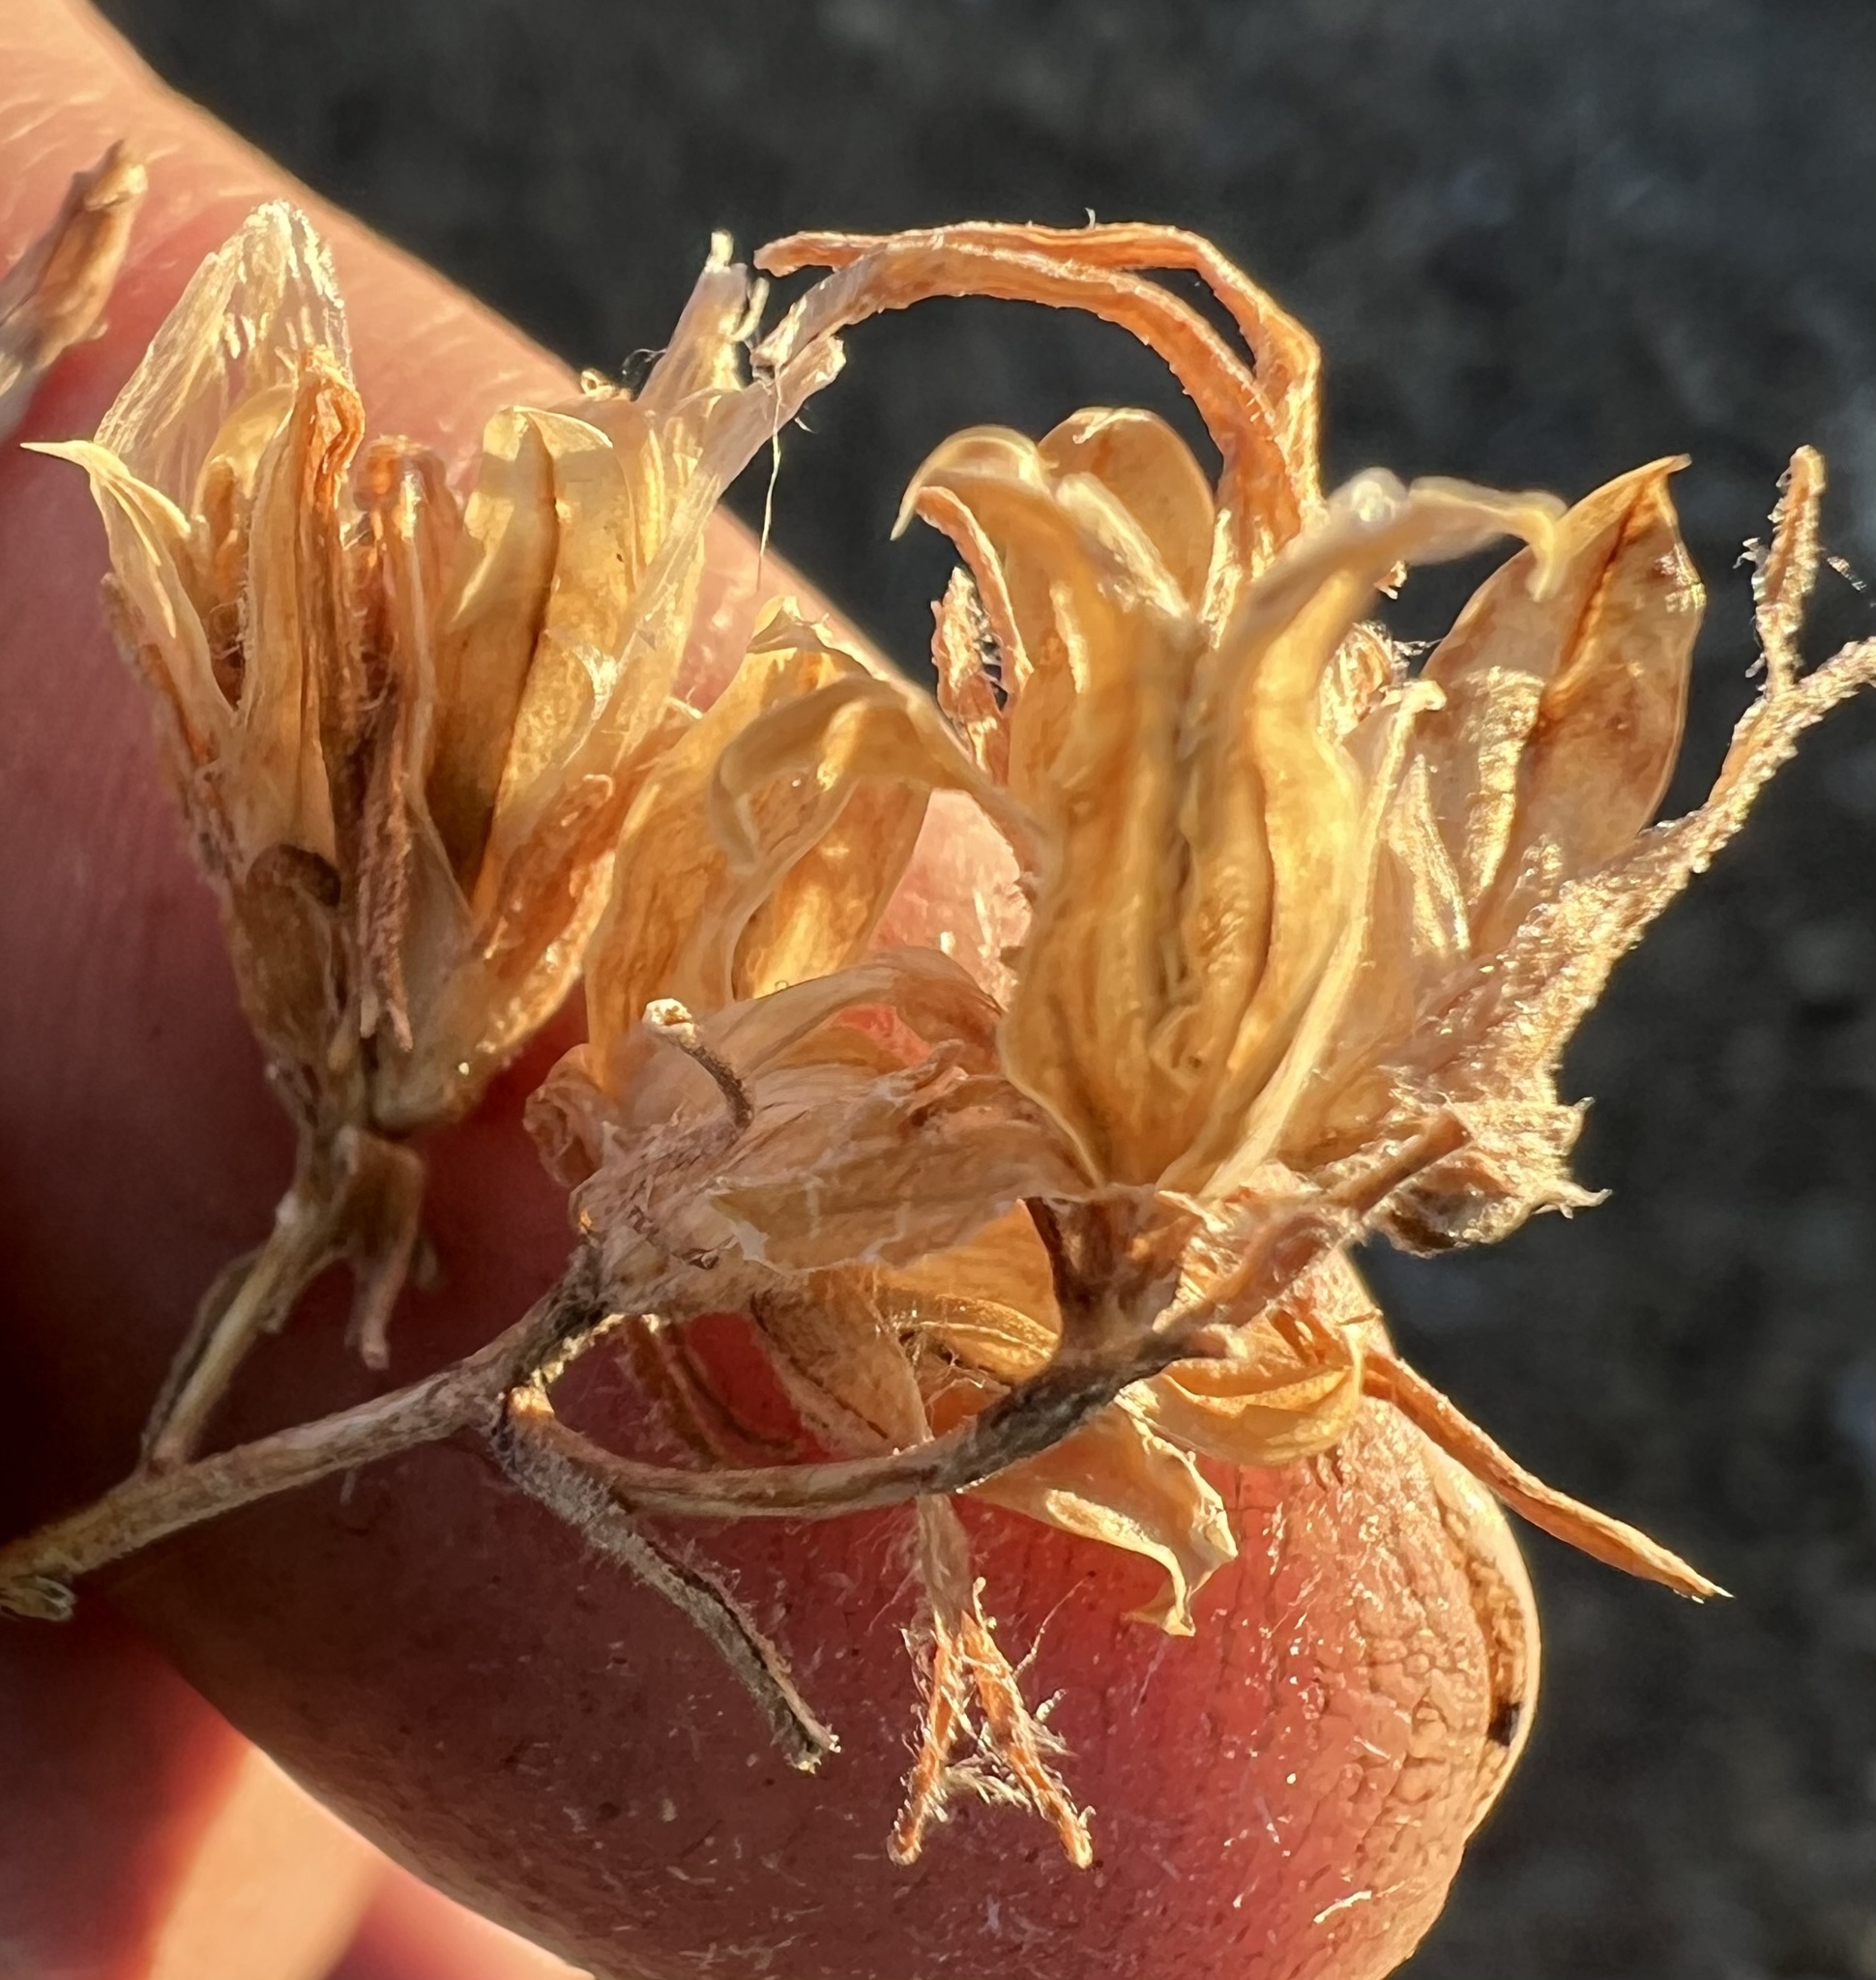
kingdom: Plantae
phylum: Tracheophyta
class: Magnoliopsida
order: Lamiales
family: Orobanchaceae
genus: Cordylanthus
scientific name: Cordylanthus kingii
